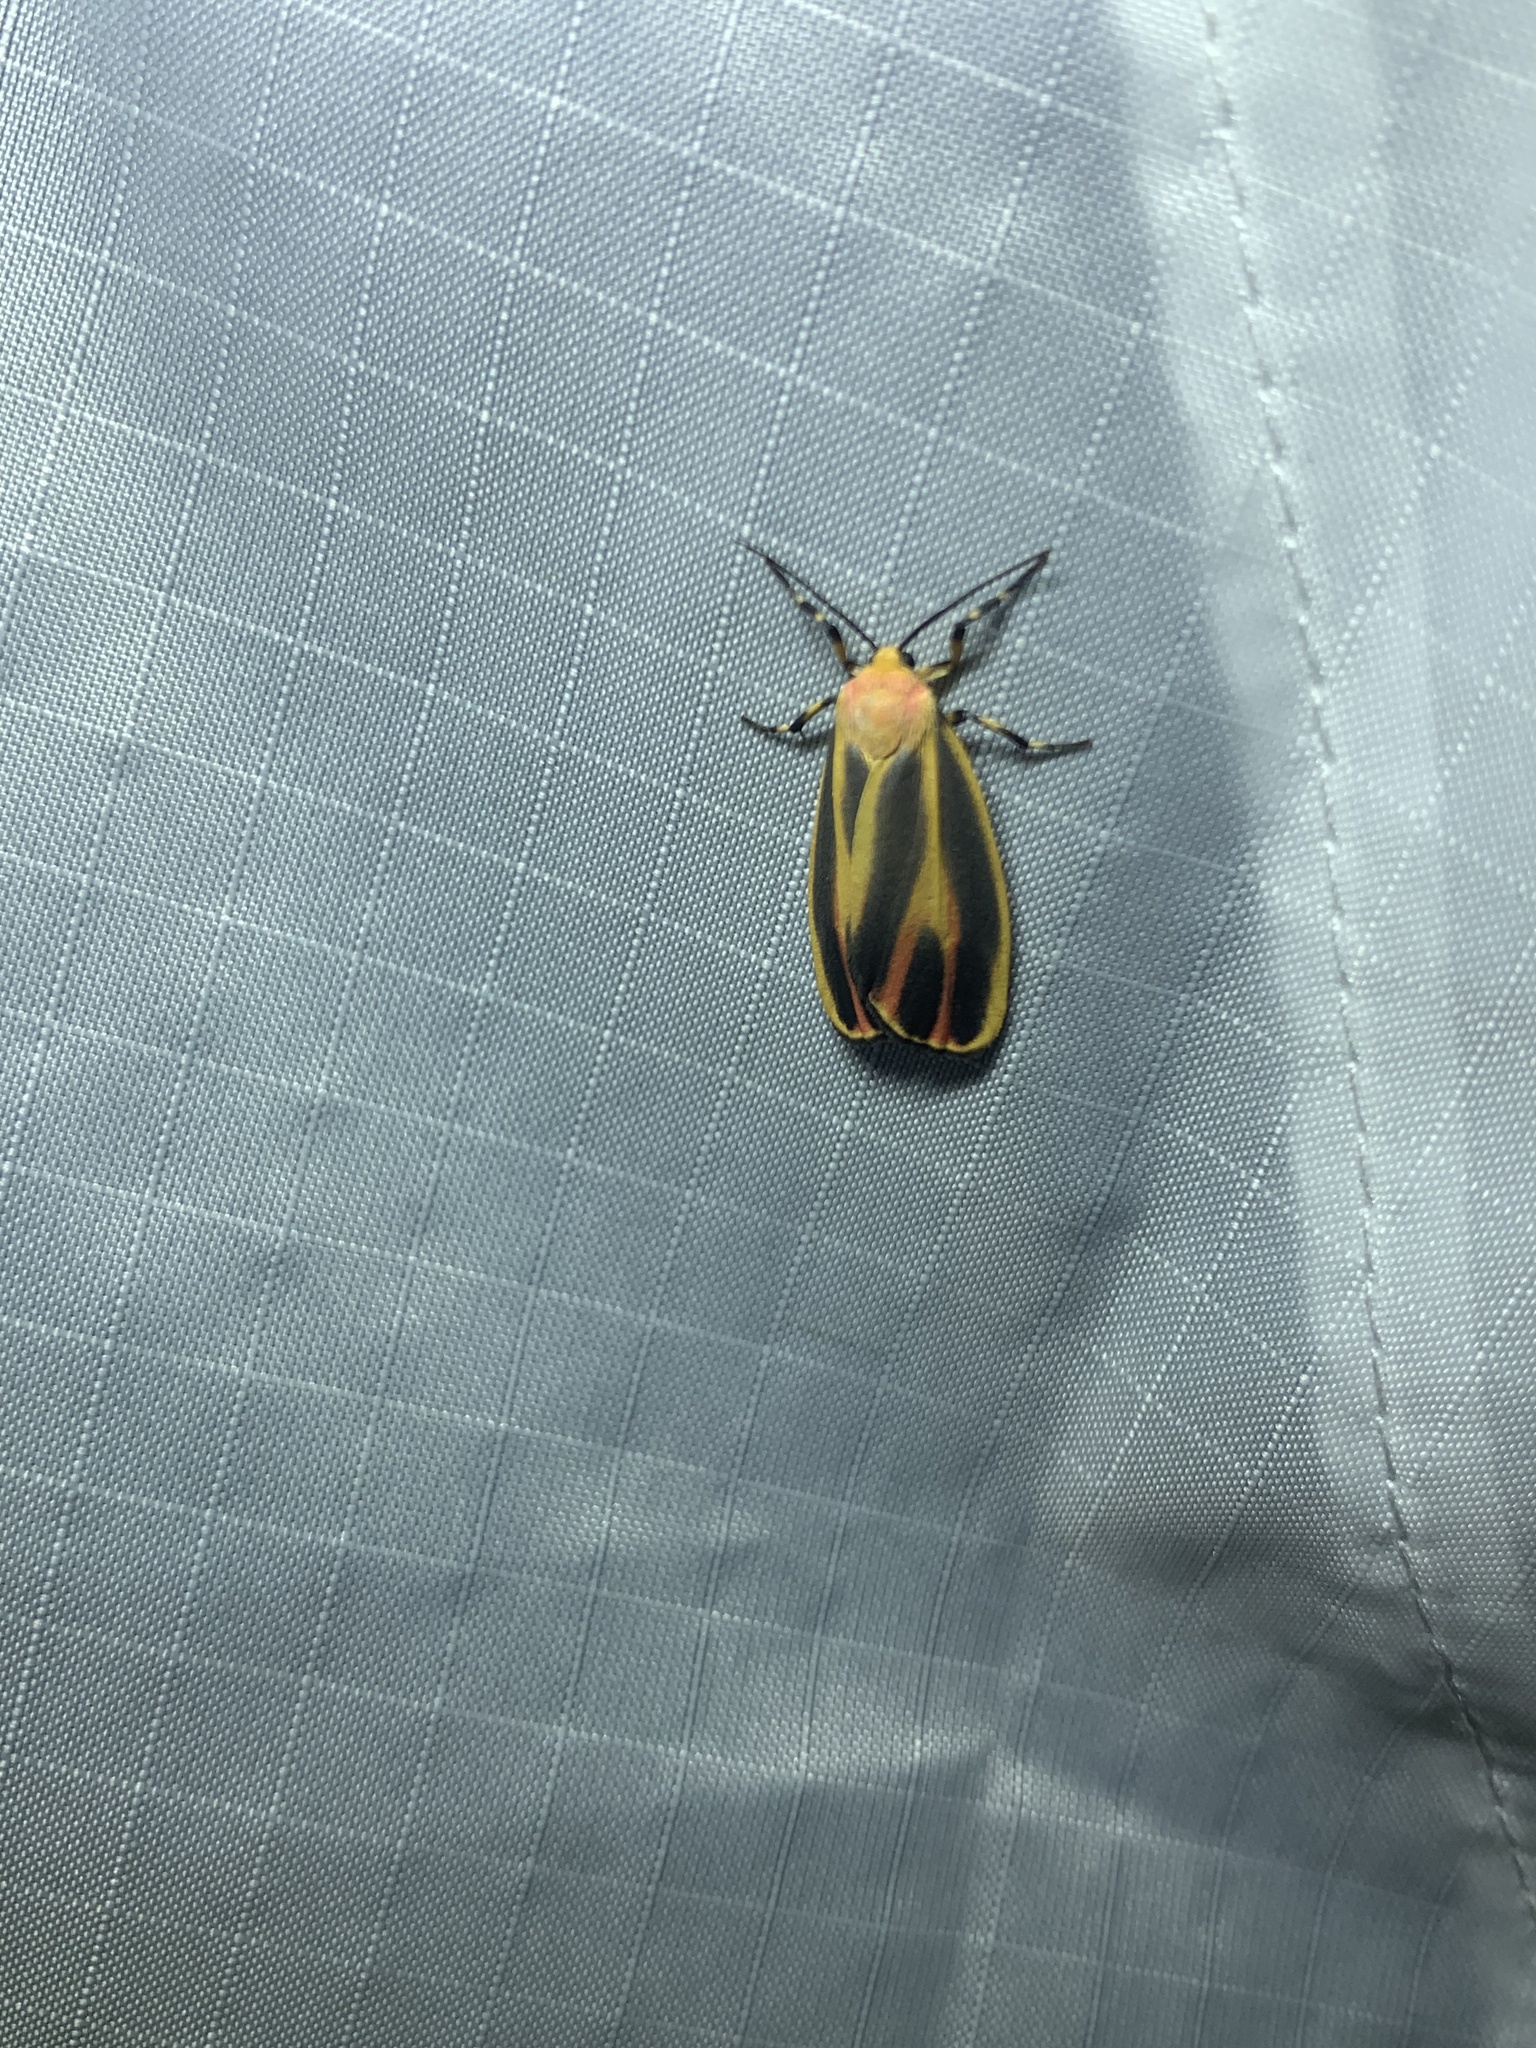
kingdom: Animalia
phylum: Arthropoda
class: Insecta
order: Lepidoptera
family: Erebidae
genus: Hypoprepia
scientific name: Hypoprepia fucosa
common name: Painted lichen moth
